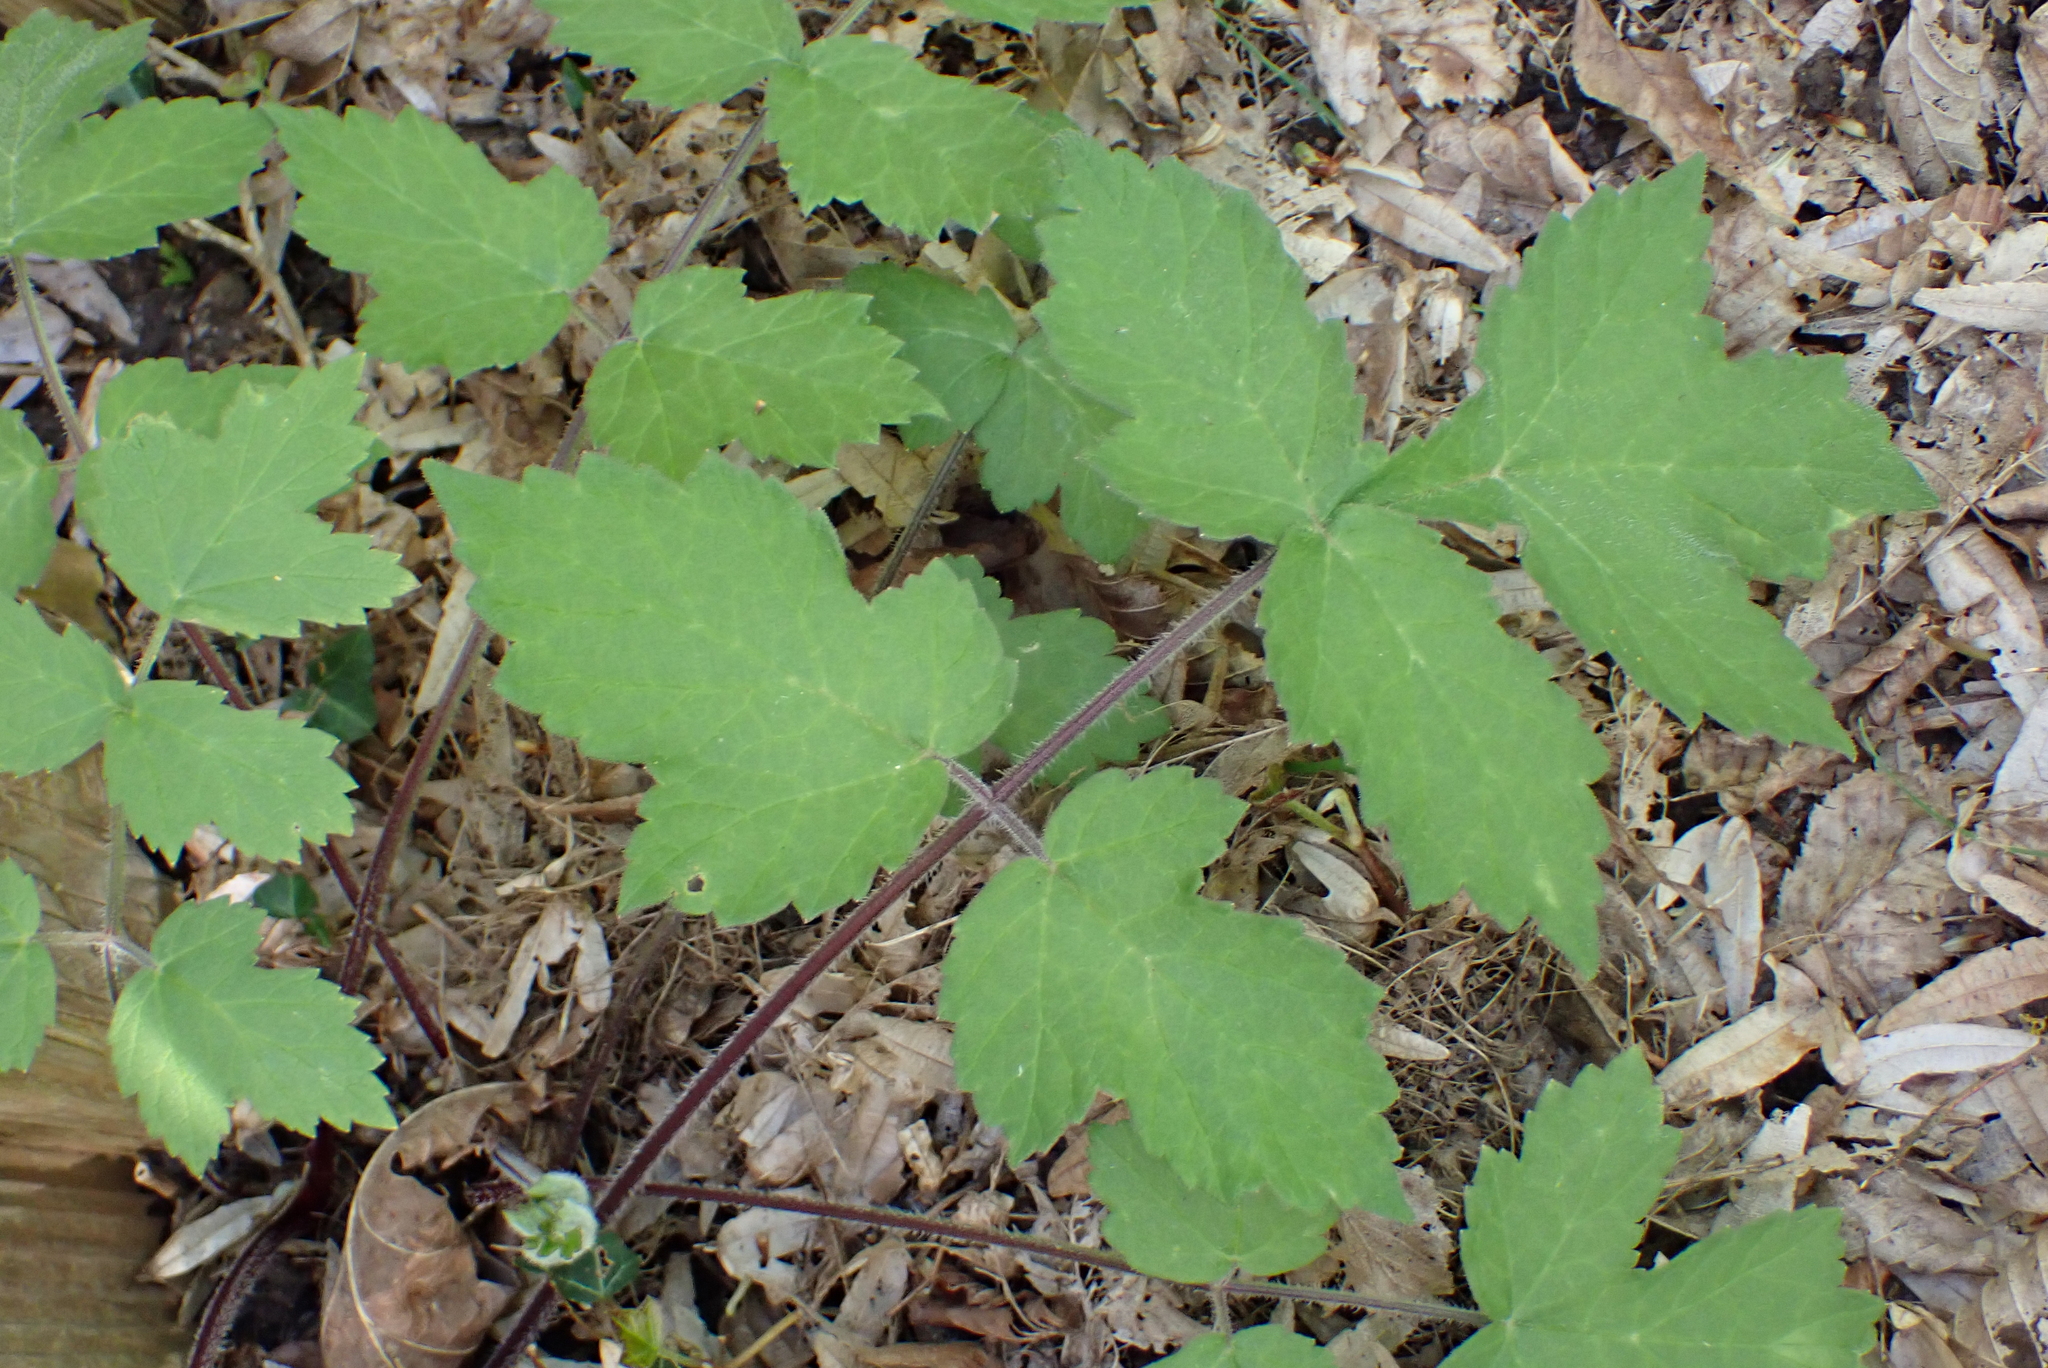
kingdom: Plantae
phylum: Tracheophyta
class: Magnoliopsida
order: Apiales
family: Apiaceae
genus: Heracleum
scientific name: Heracleum sphondylium
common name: Hogweed
